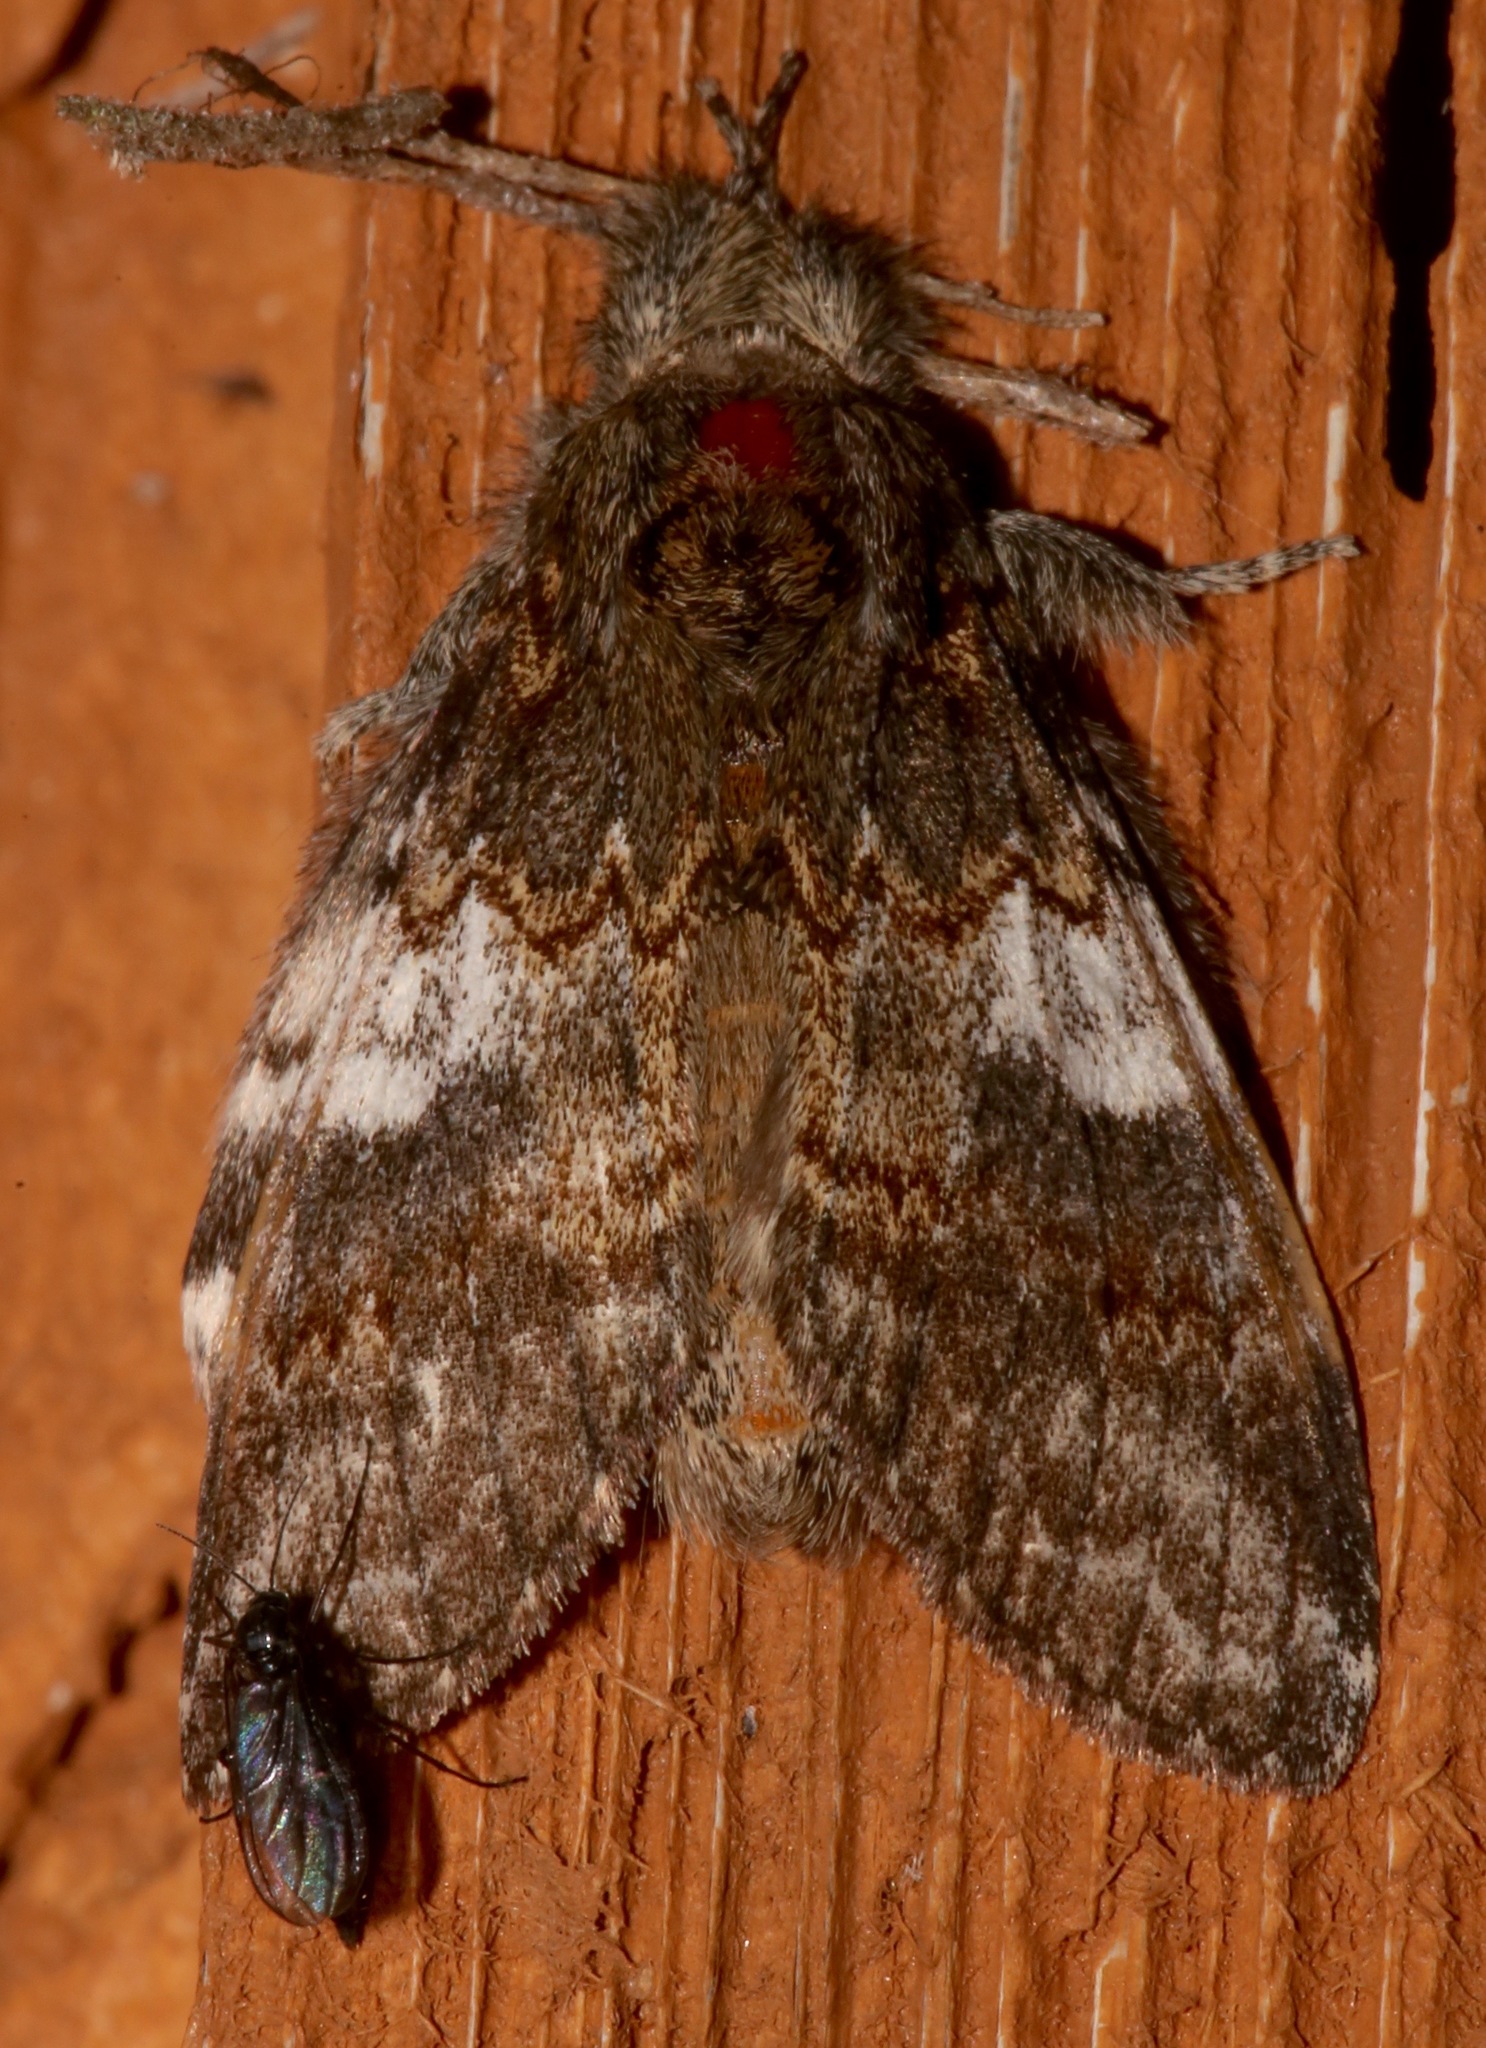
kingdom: Animalia
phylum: Arthropoda
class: Insecta
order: Lepidoptera
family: Notodontidae
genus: Peridea
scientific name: Peridea angulosa
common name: Angulose prominent
